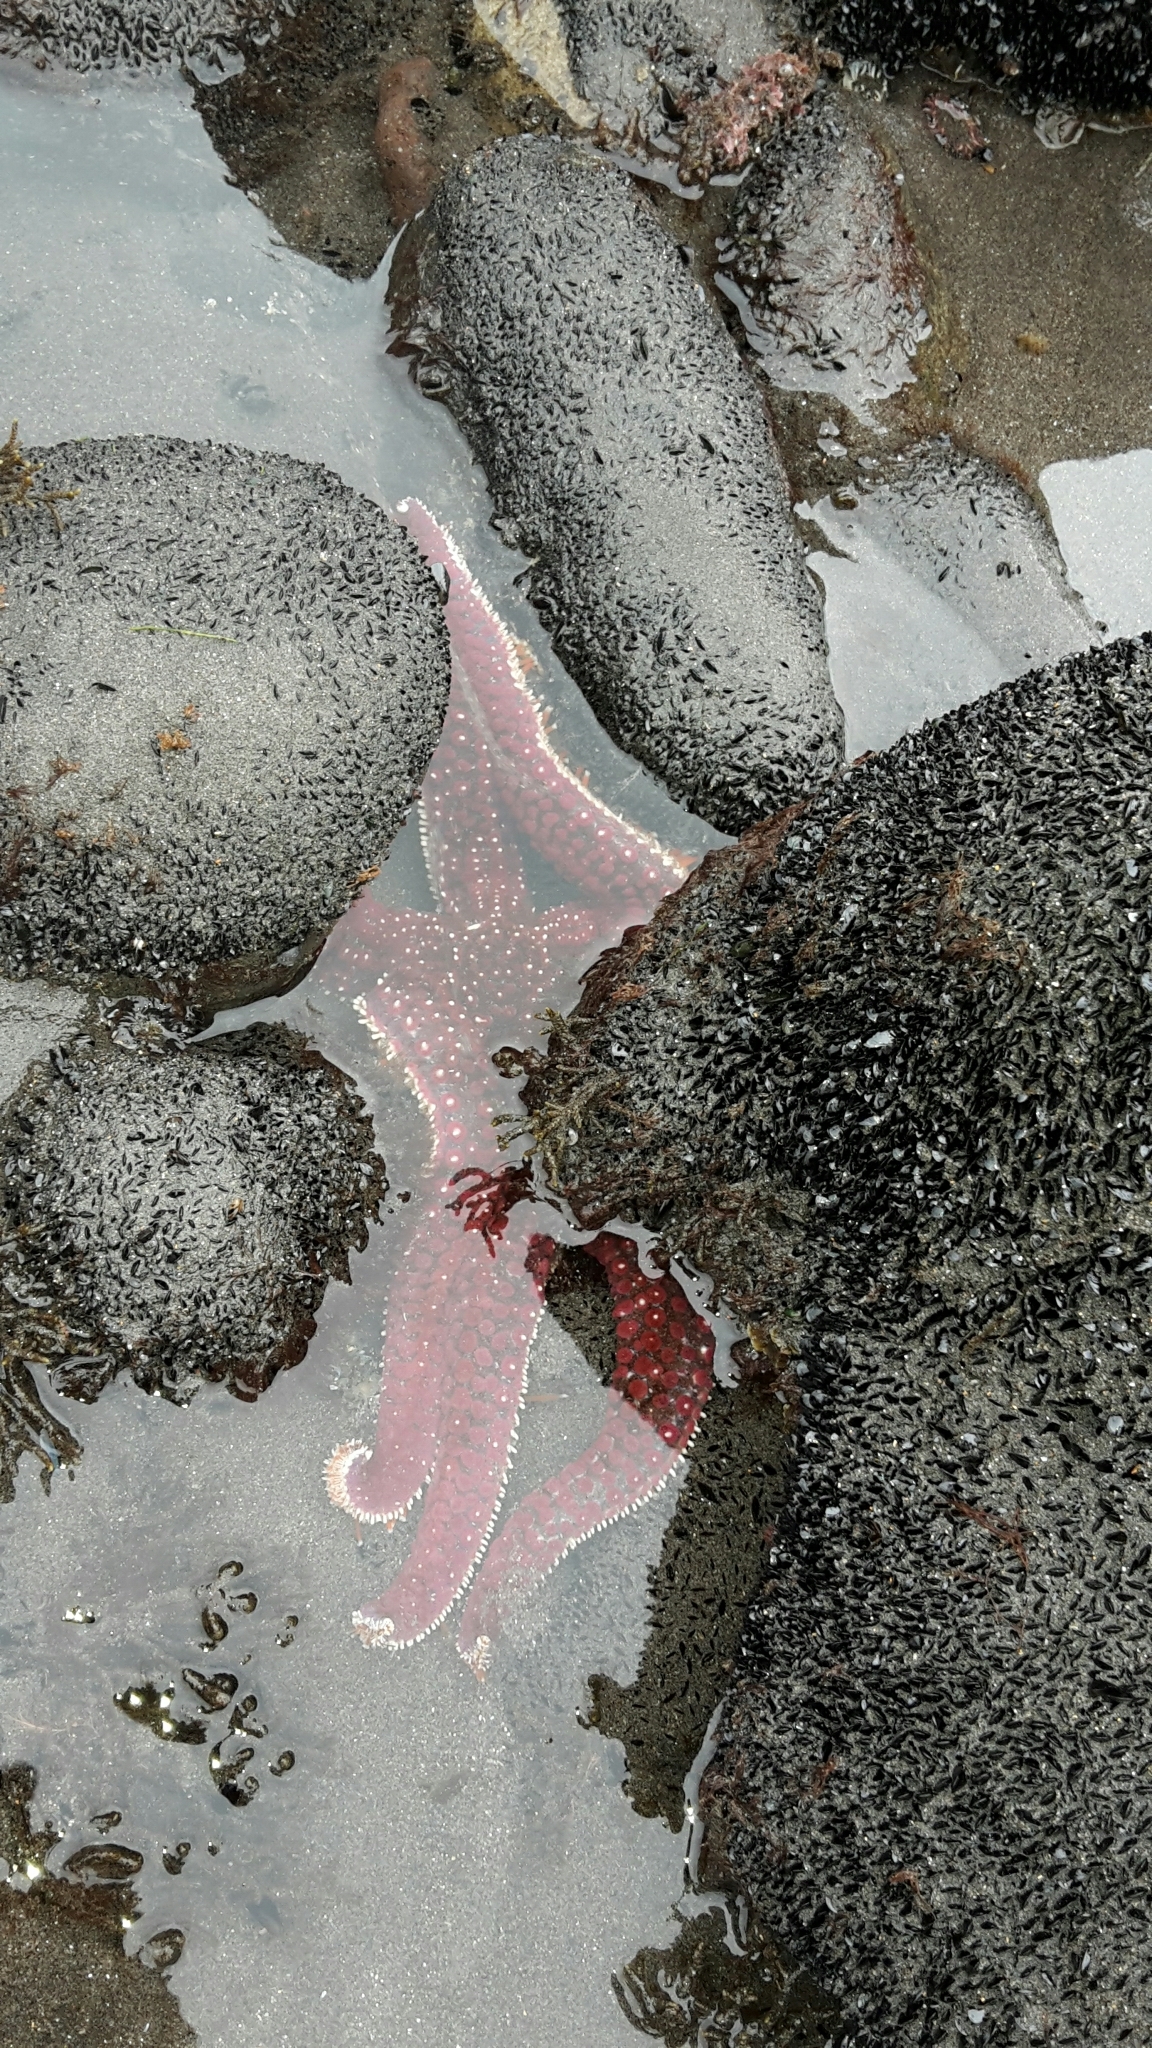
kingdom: Animalia
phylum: Echinodermata
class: Asteroidea
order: Forcipulatida
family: Asteriidae
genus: Astrostole
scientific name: Astrostole scabra
